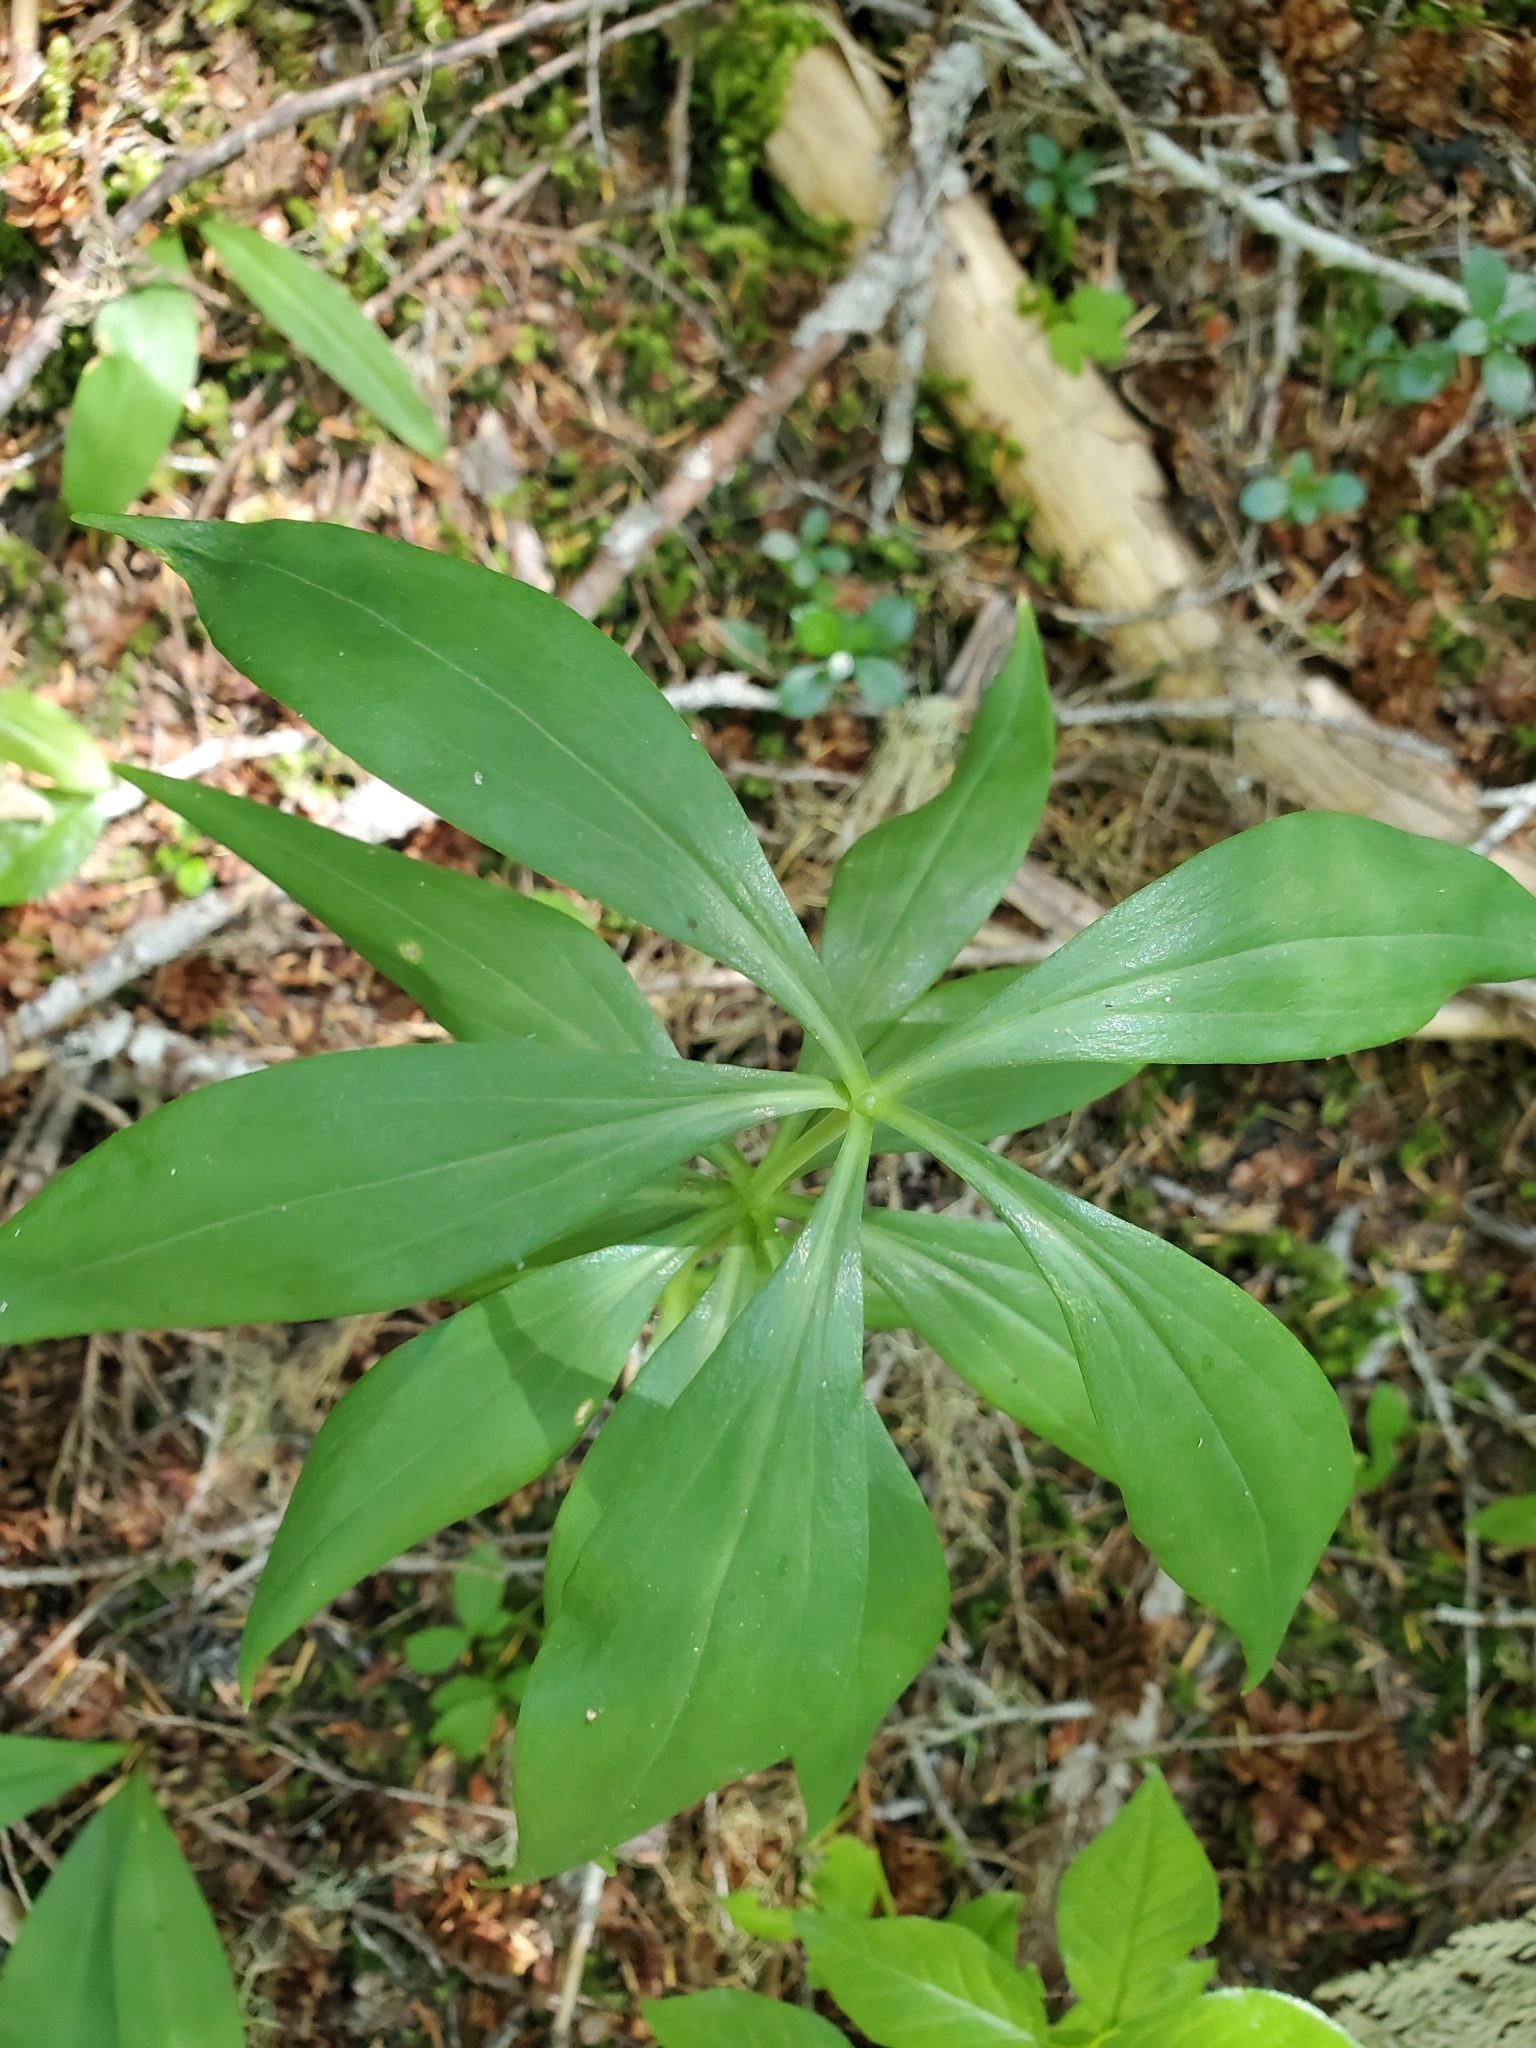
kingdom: Plantae
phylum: Tracheophyta
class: Liliopsida
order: Liliales
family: Liliaceae
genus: Lilium
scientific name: Lilium columbianum
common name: Columbia lily
